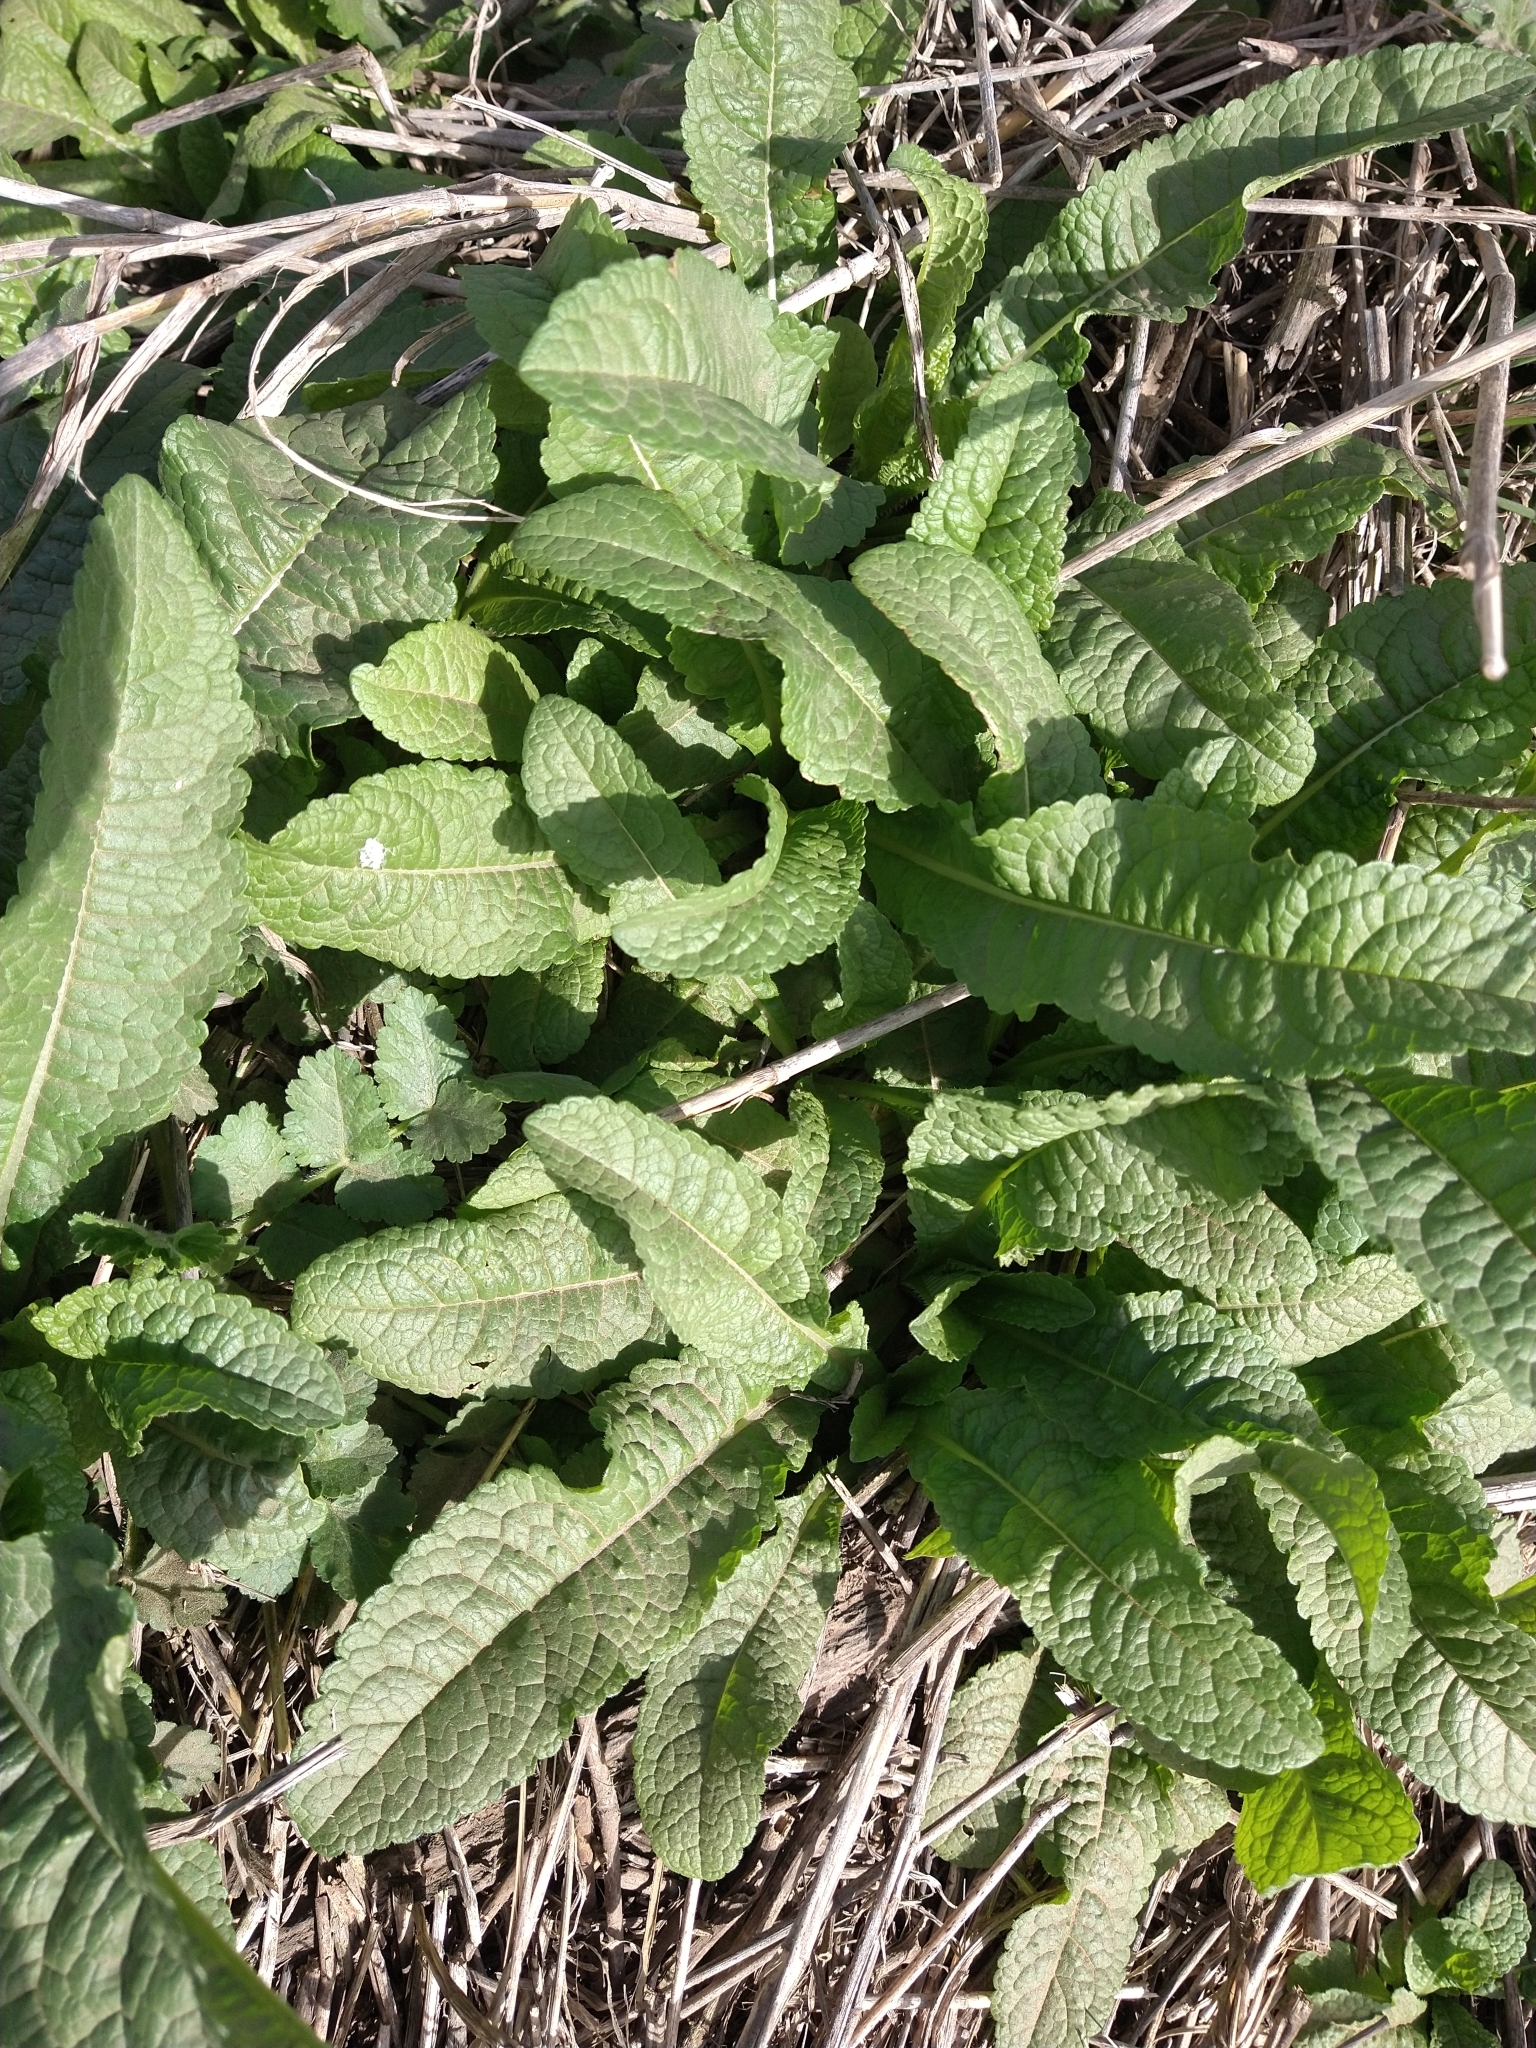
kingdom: Plantae
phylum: Tracheophyta
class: Magnoliopsida
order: Dipsacales
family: Caprifoliaceae
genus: Dipsacus
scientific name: Dipsacus fullonum
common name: Teasel
